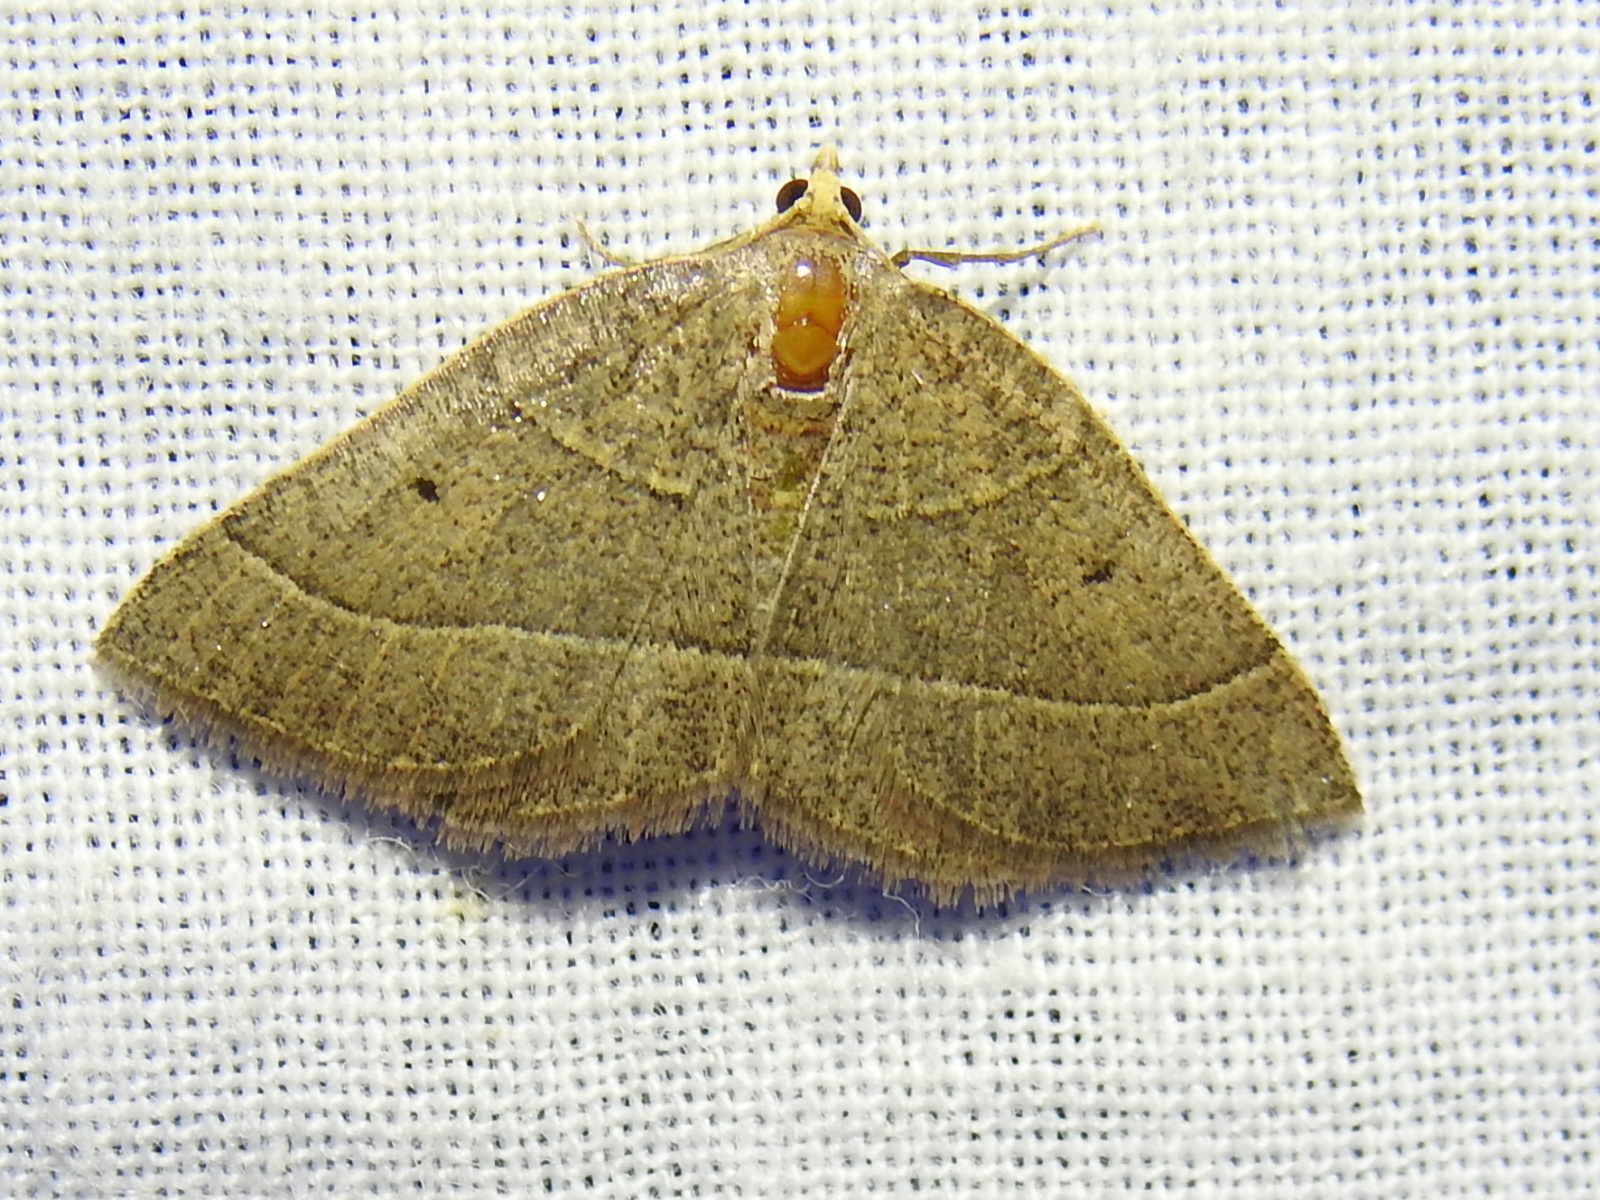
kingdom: Animalia
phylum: Arthropoda
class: Insecta
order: Lepidoptera
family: Geometridae
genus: Episemasia
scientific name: Episemasia cervinaria
